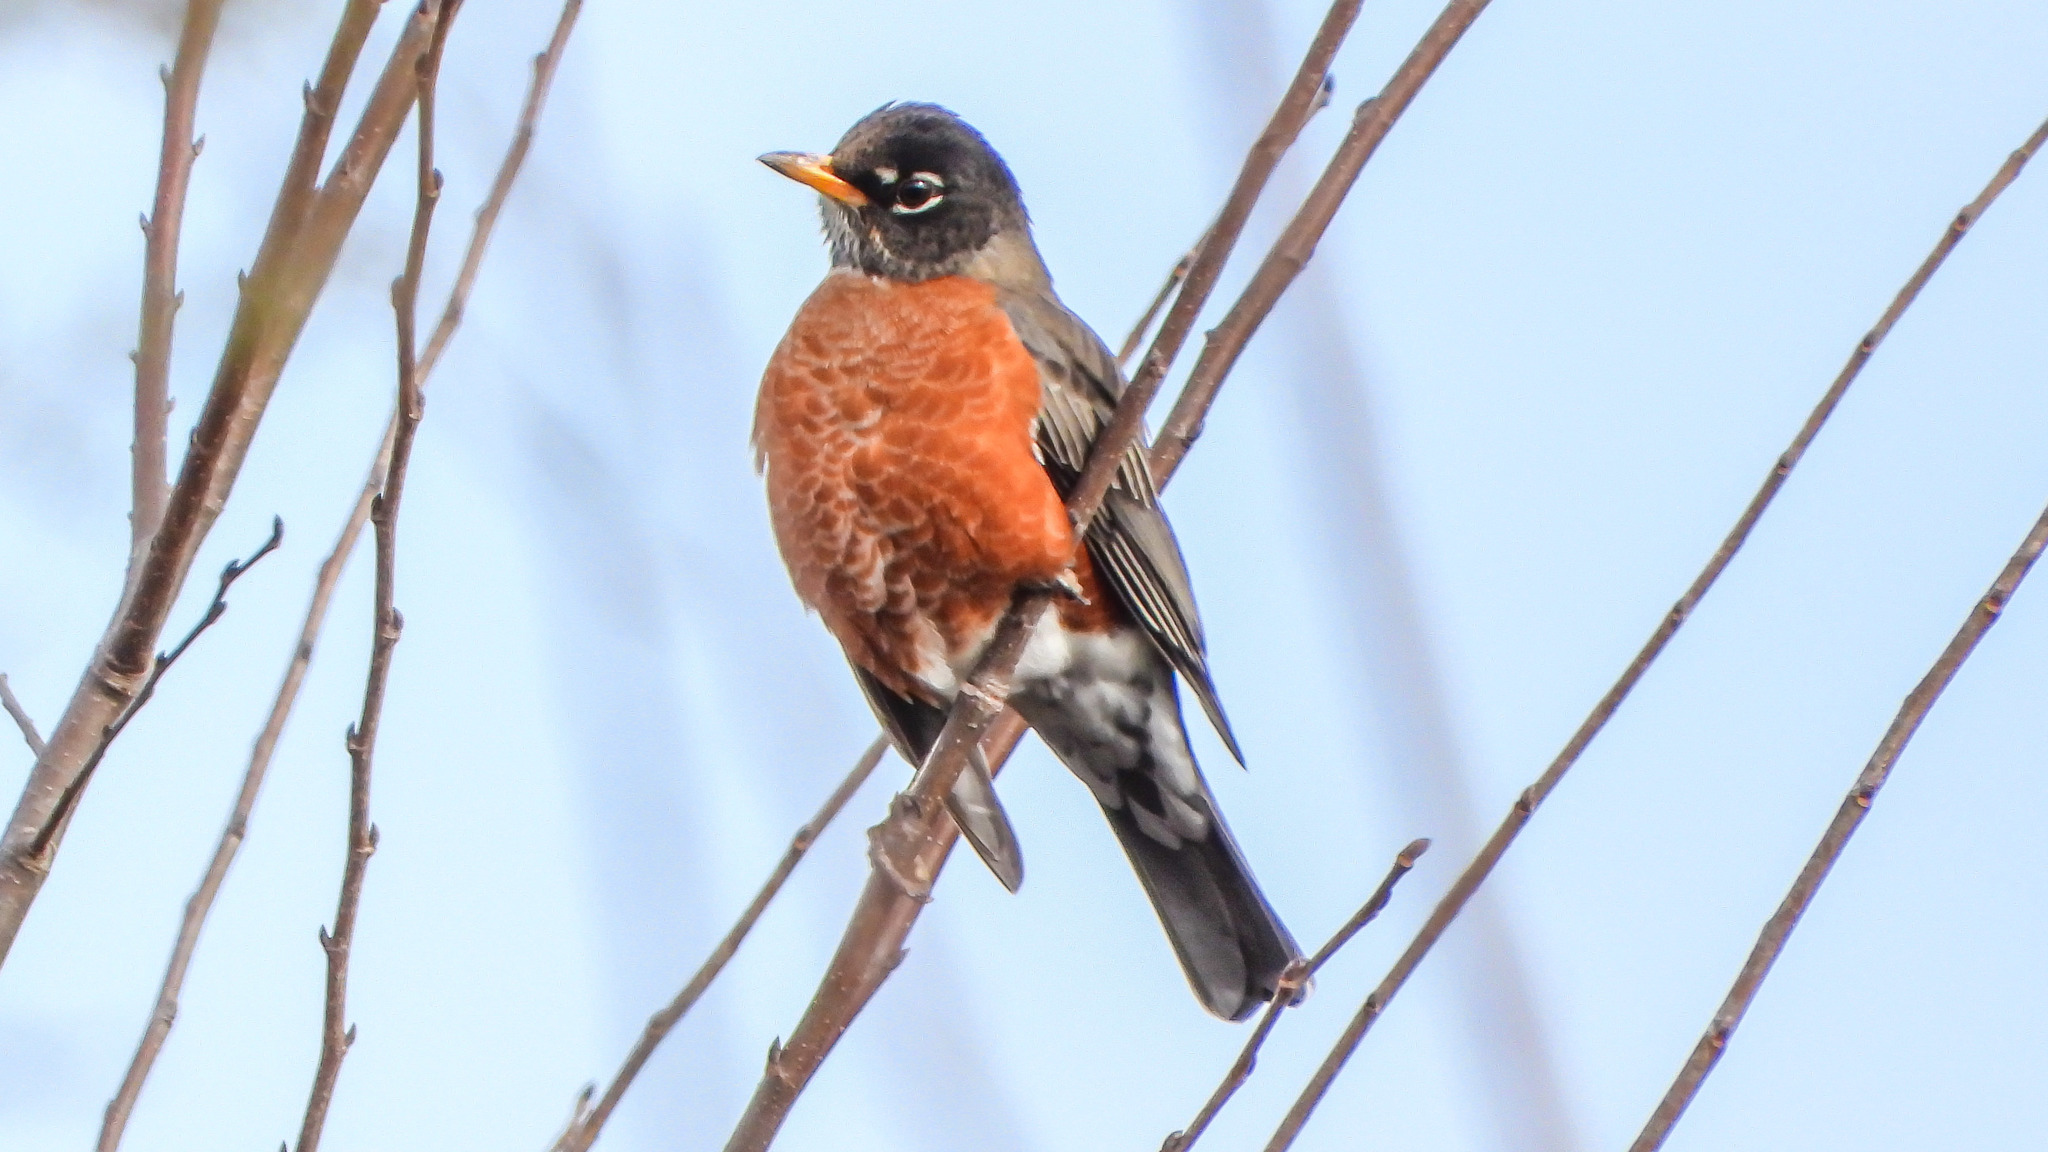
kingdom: Animalia
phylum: Chordata
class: Aves
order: Passeriformes
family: Turdidae
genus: Turdus
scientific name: Turdus migratorius
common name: American robin
